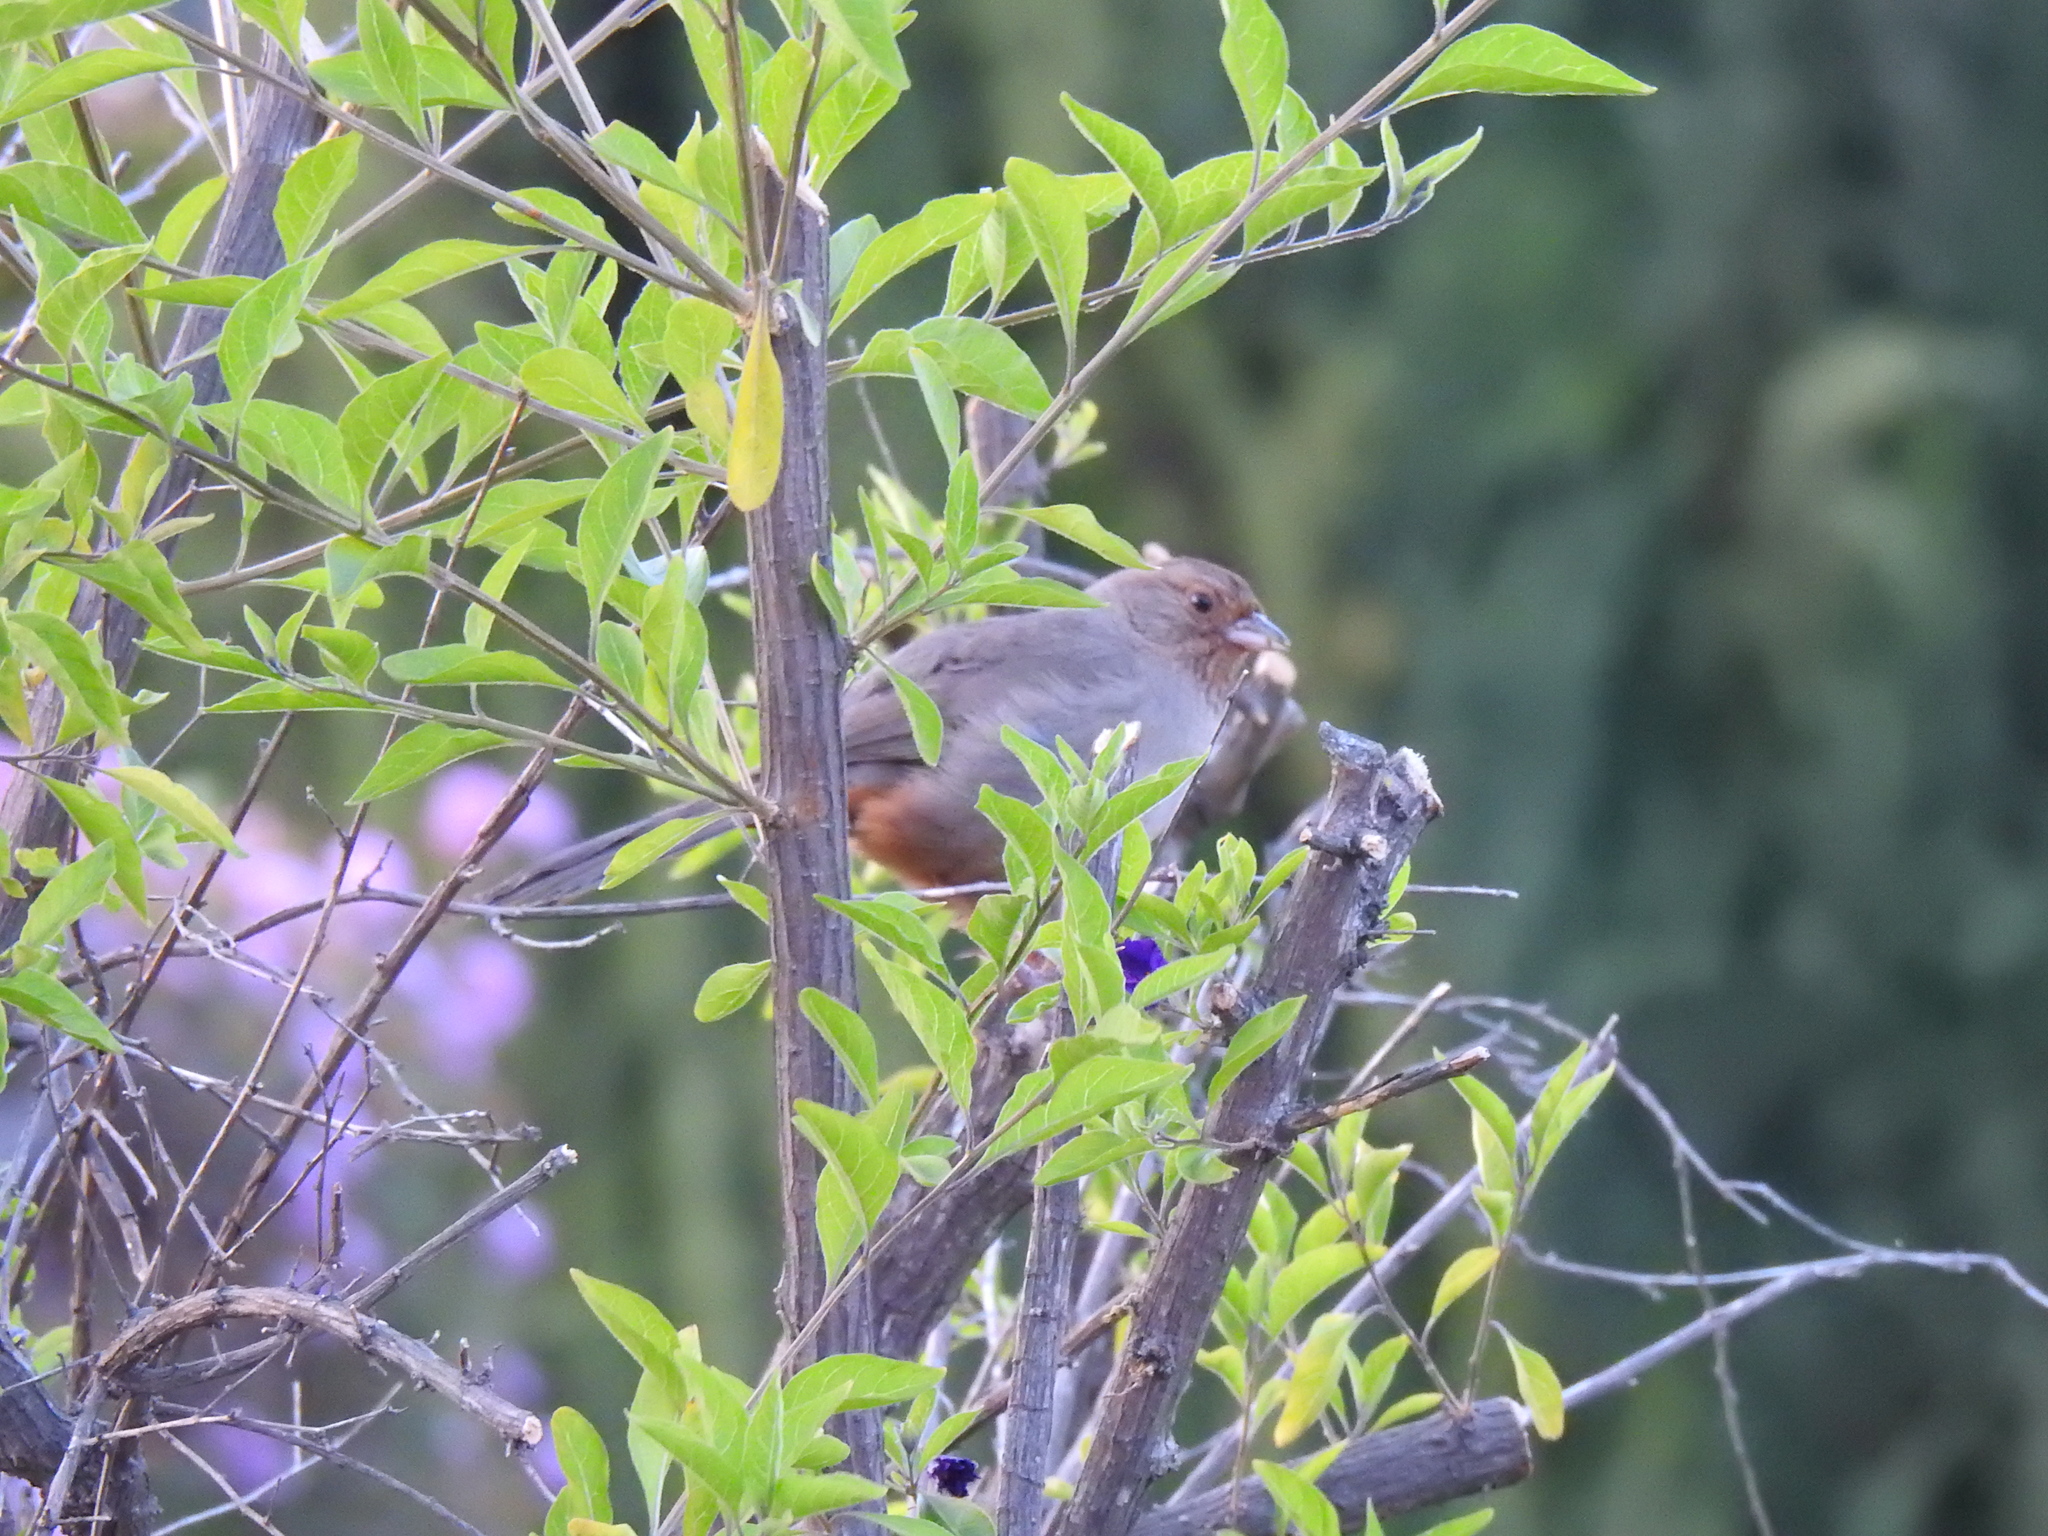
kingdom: Animalia
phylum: Chordata
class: Aves
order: Passeriformes
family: Passerellidae
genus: Melozone
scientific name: Melozone crissalis
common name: California towhee
